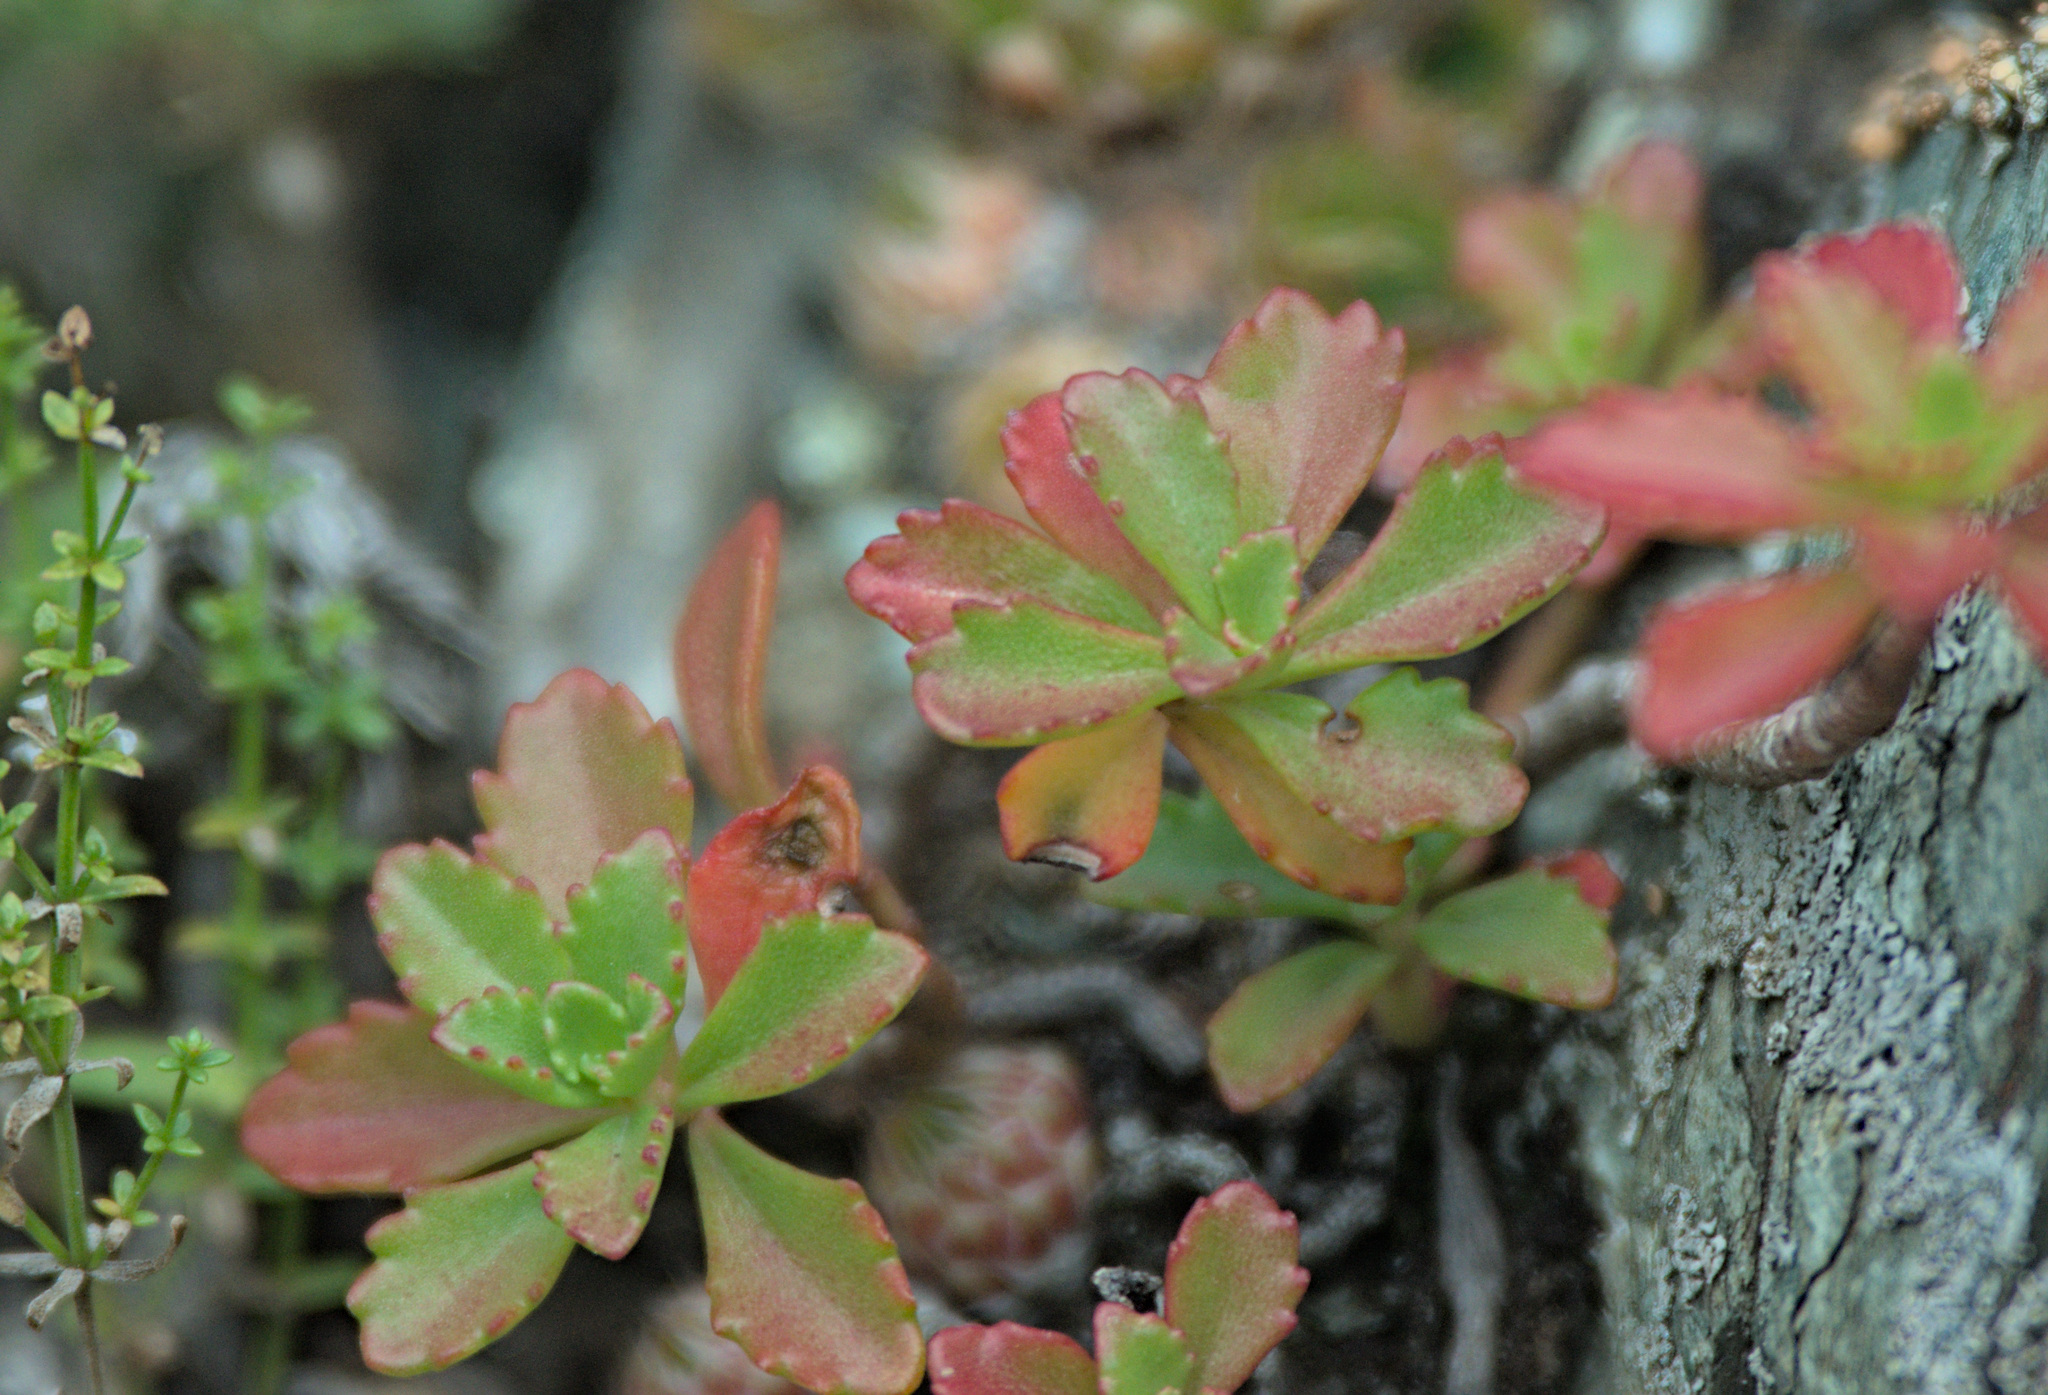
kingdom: Plantae
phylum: Tracheophyta
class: Magnoliopsida
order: Saxifragales
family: Crassulaceae
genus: Phedimus
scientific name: Phedimus hybridus
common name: Hybrid stonecrop
